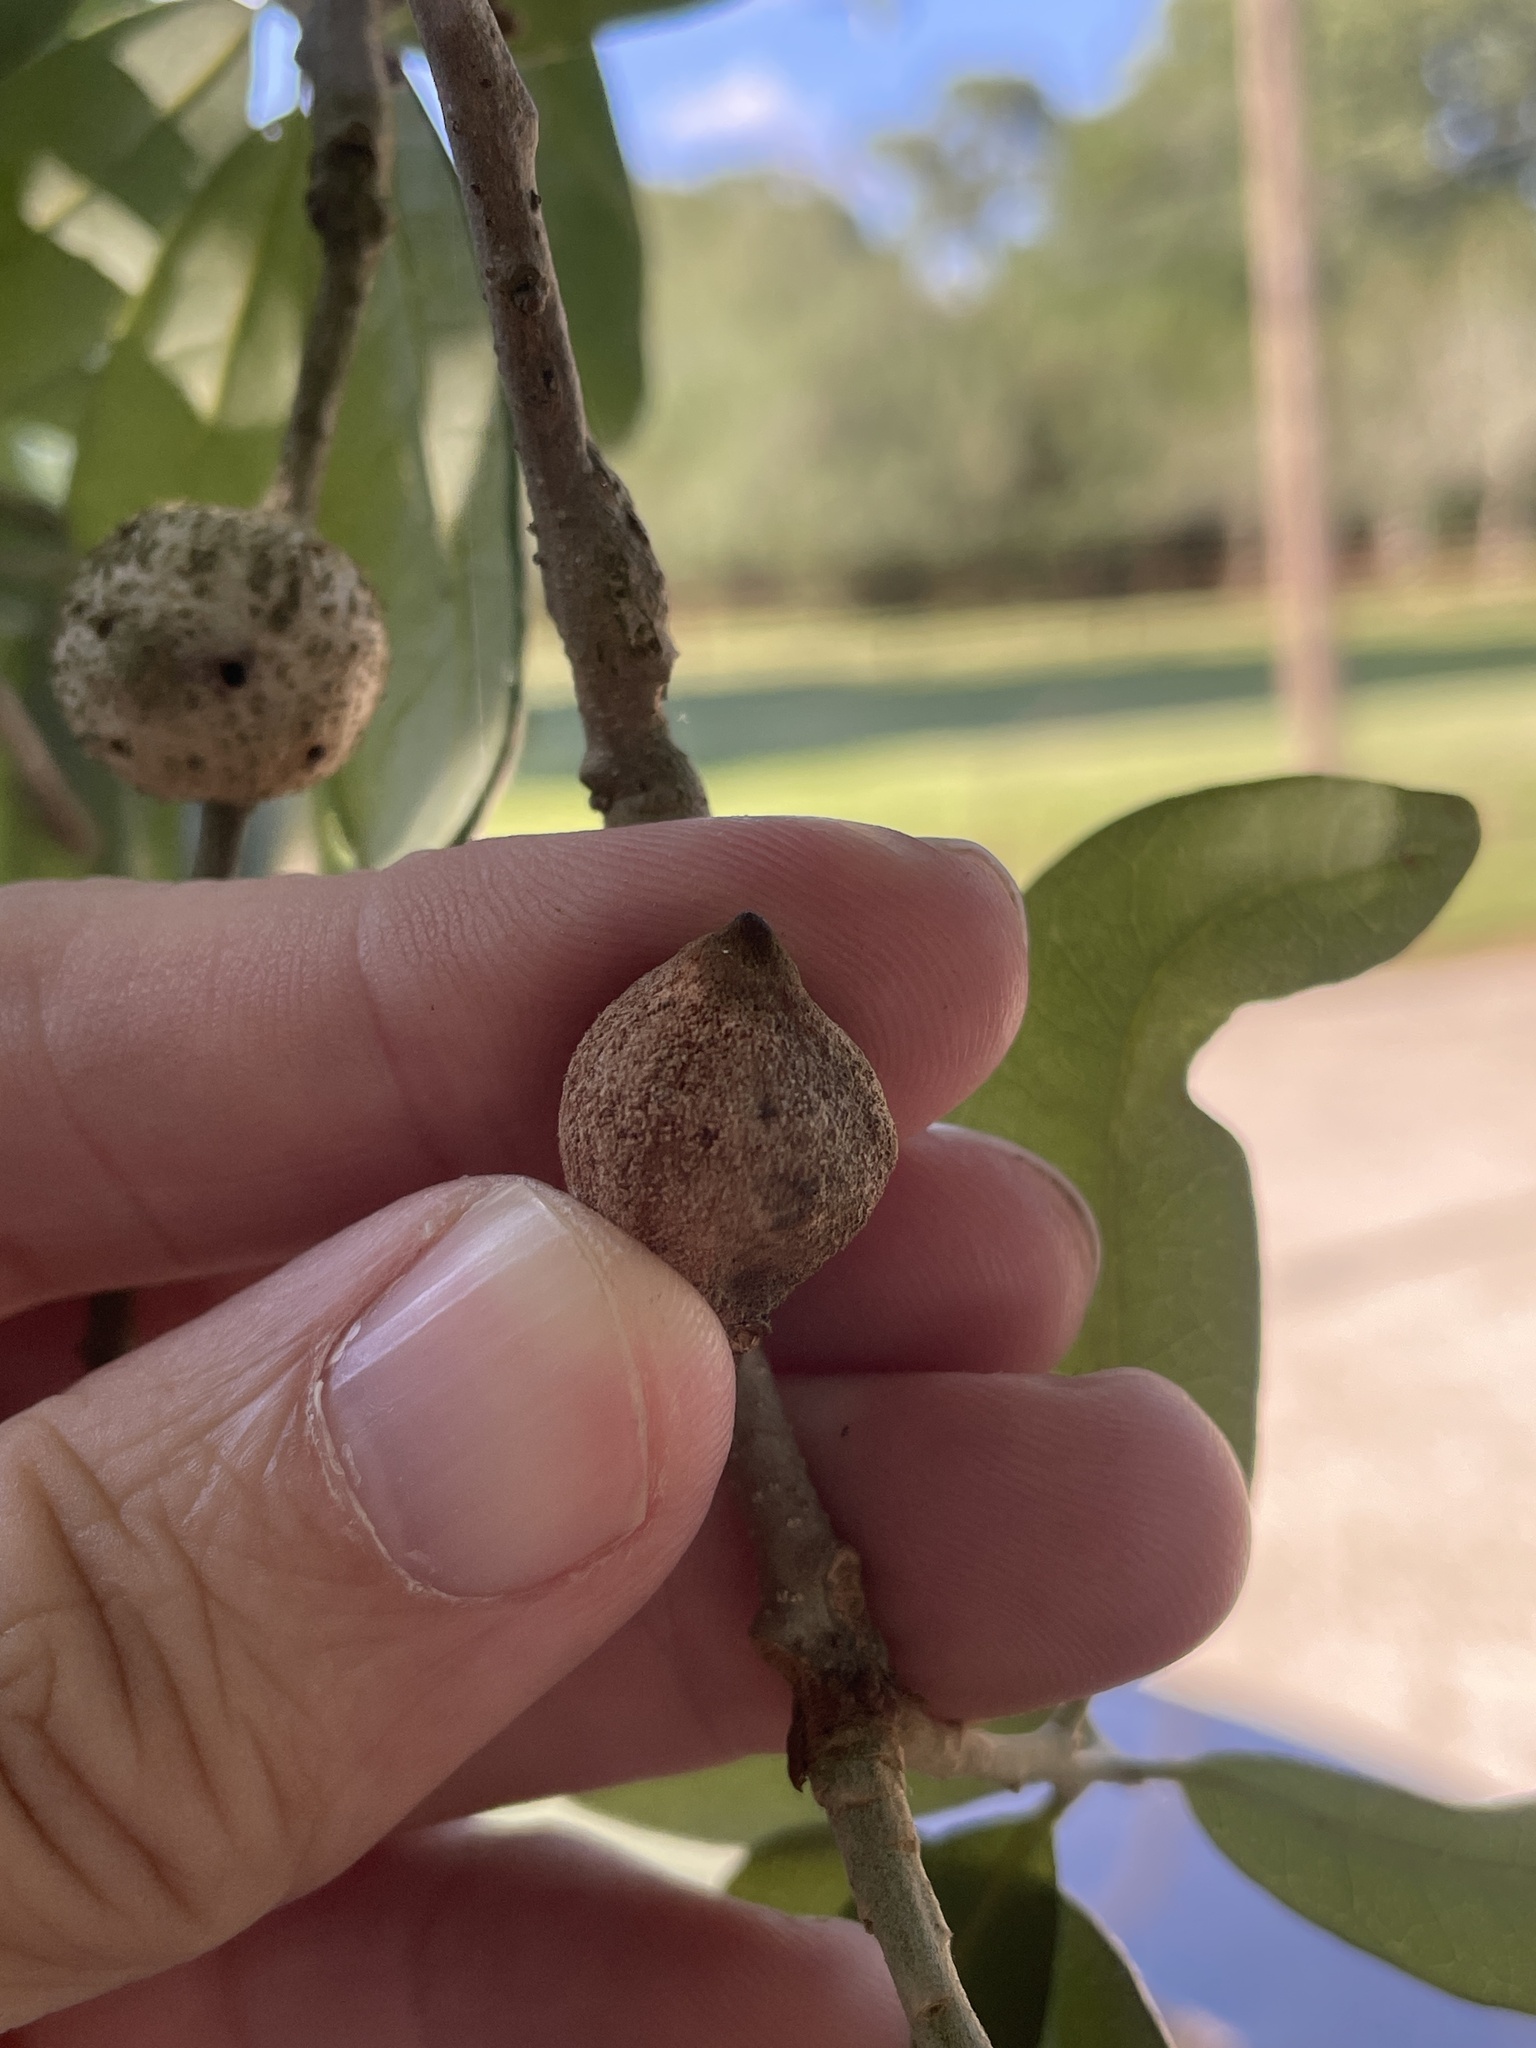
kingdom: Animalia
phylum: Arthropoda
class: Insecta
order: Hymenoptera
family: Cynipidae
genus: Disholcaspis
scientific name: Disholcaspis
